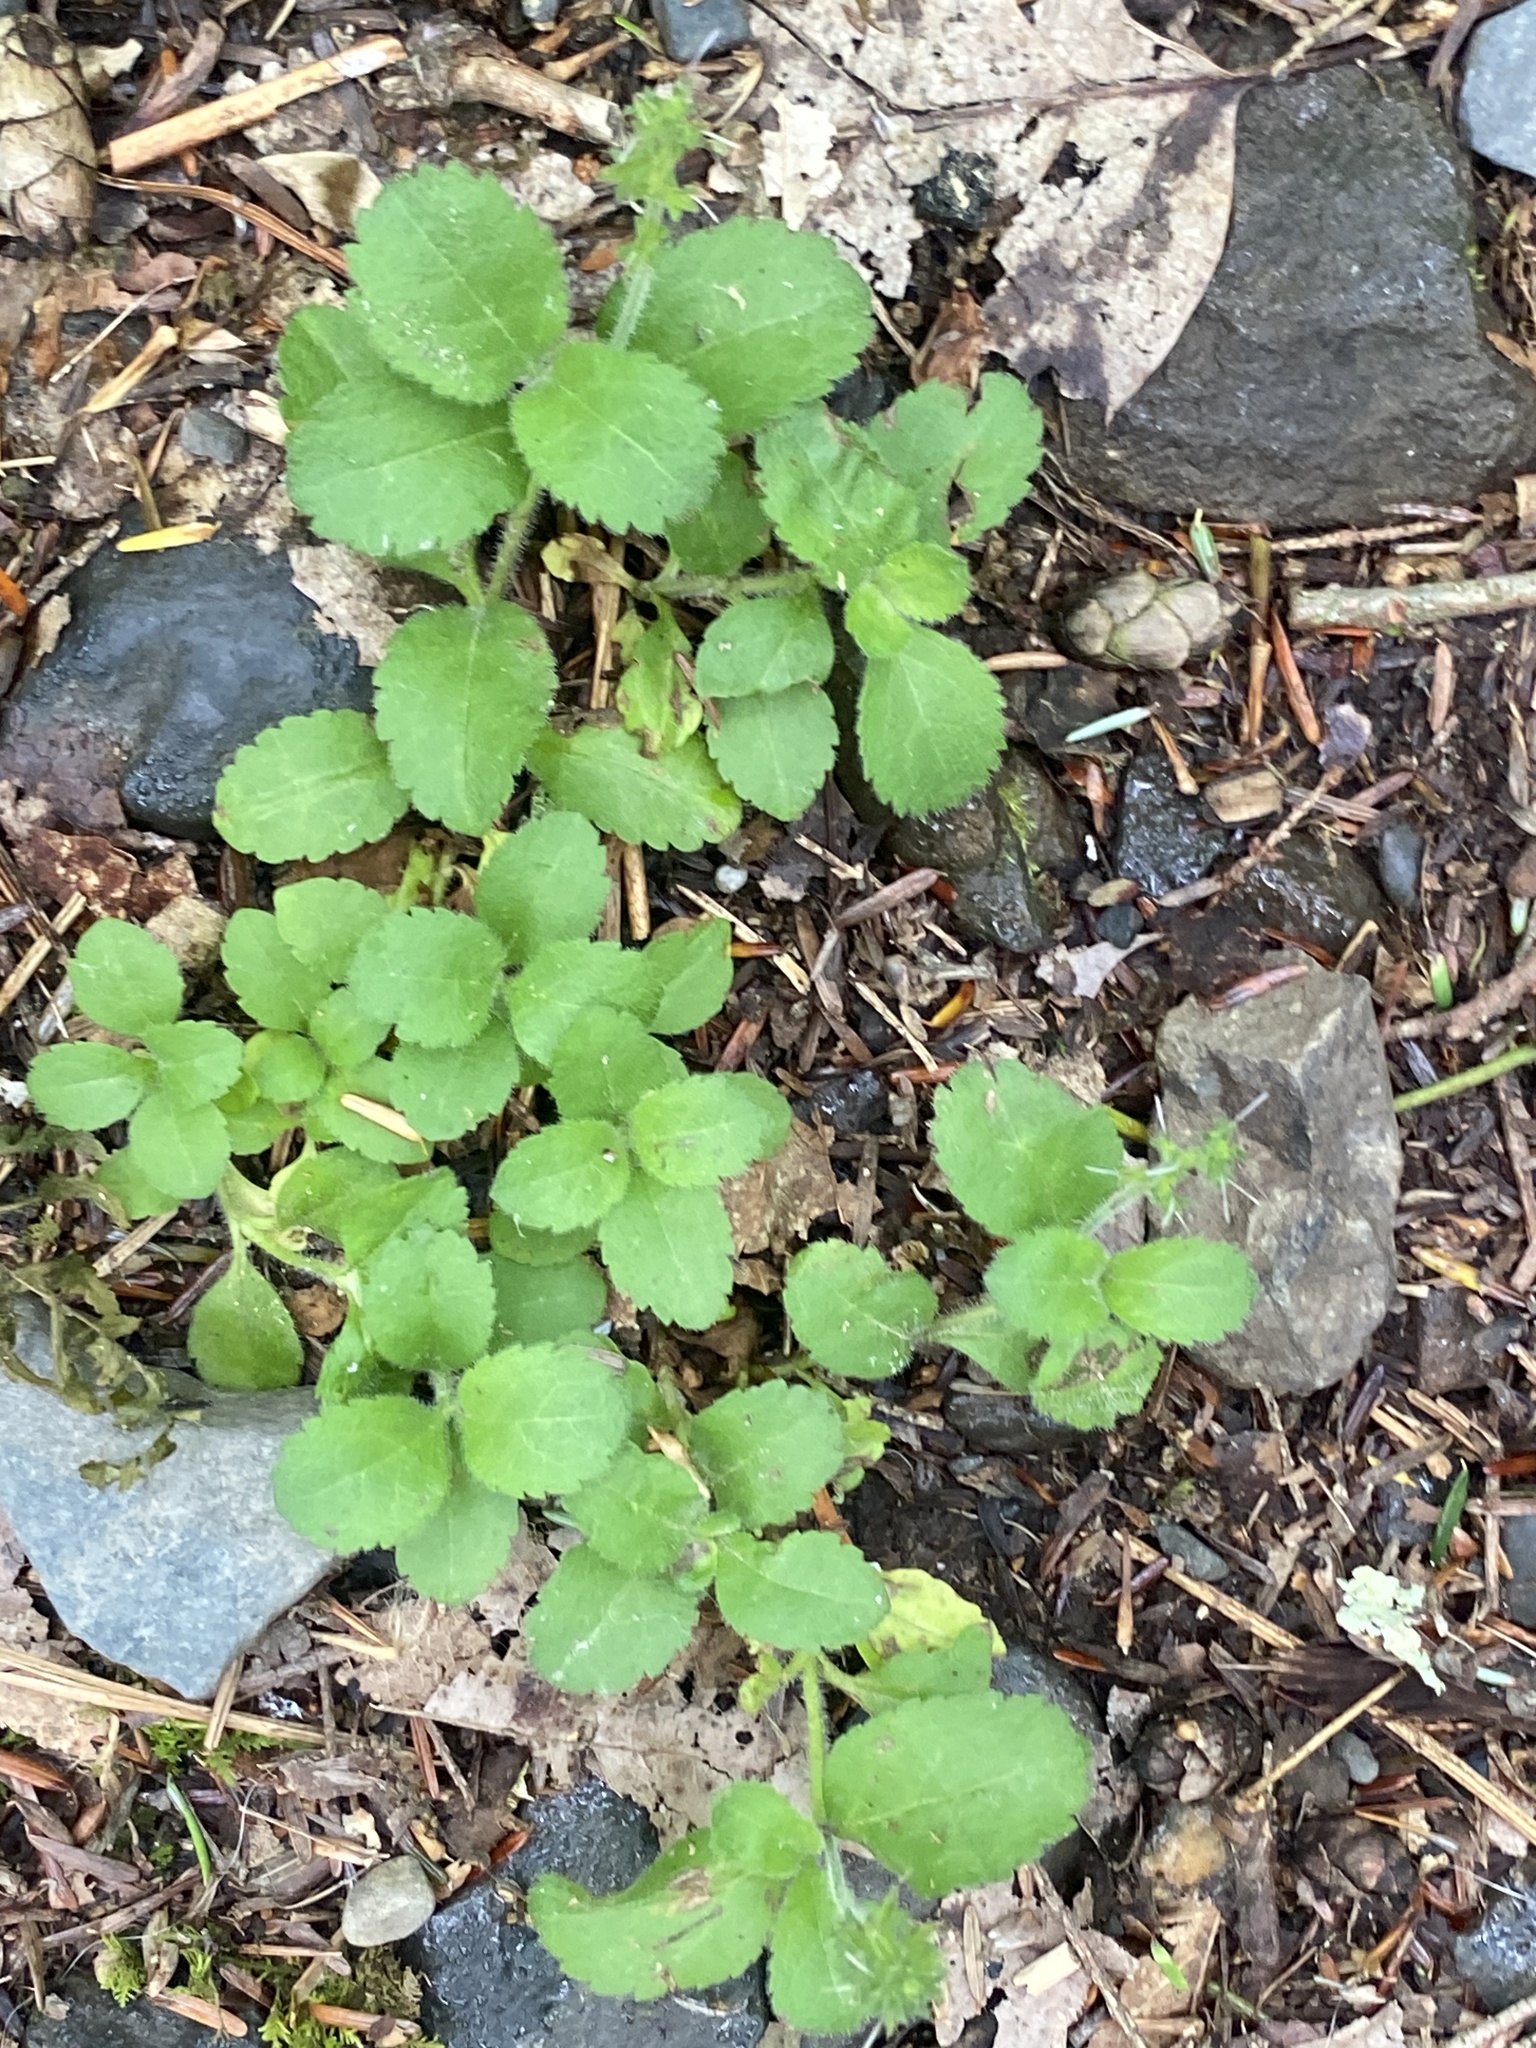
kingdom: Plantae
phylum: Tracheophyta
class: Magnoliopsida
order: Lamiales
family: Plantaginaceae
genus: Veronica
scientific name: Veronica officinalis
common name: Common speedwell
